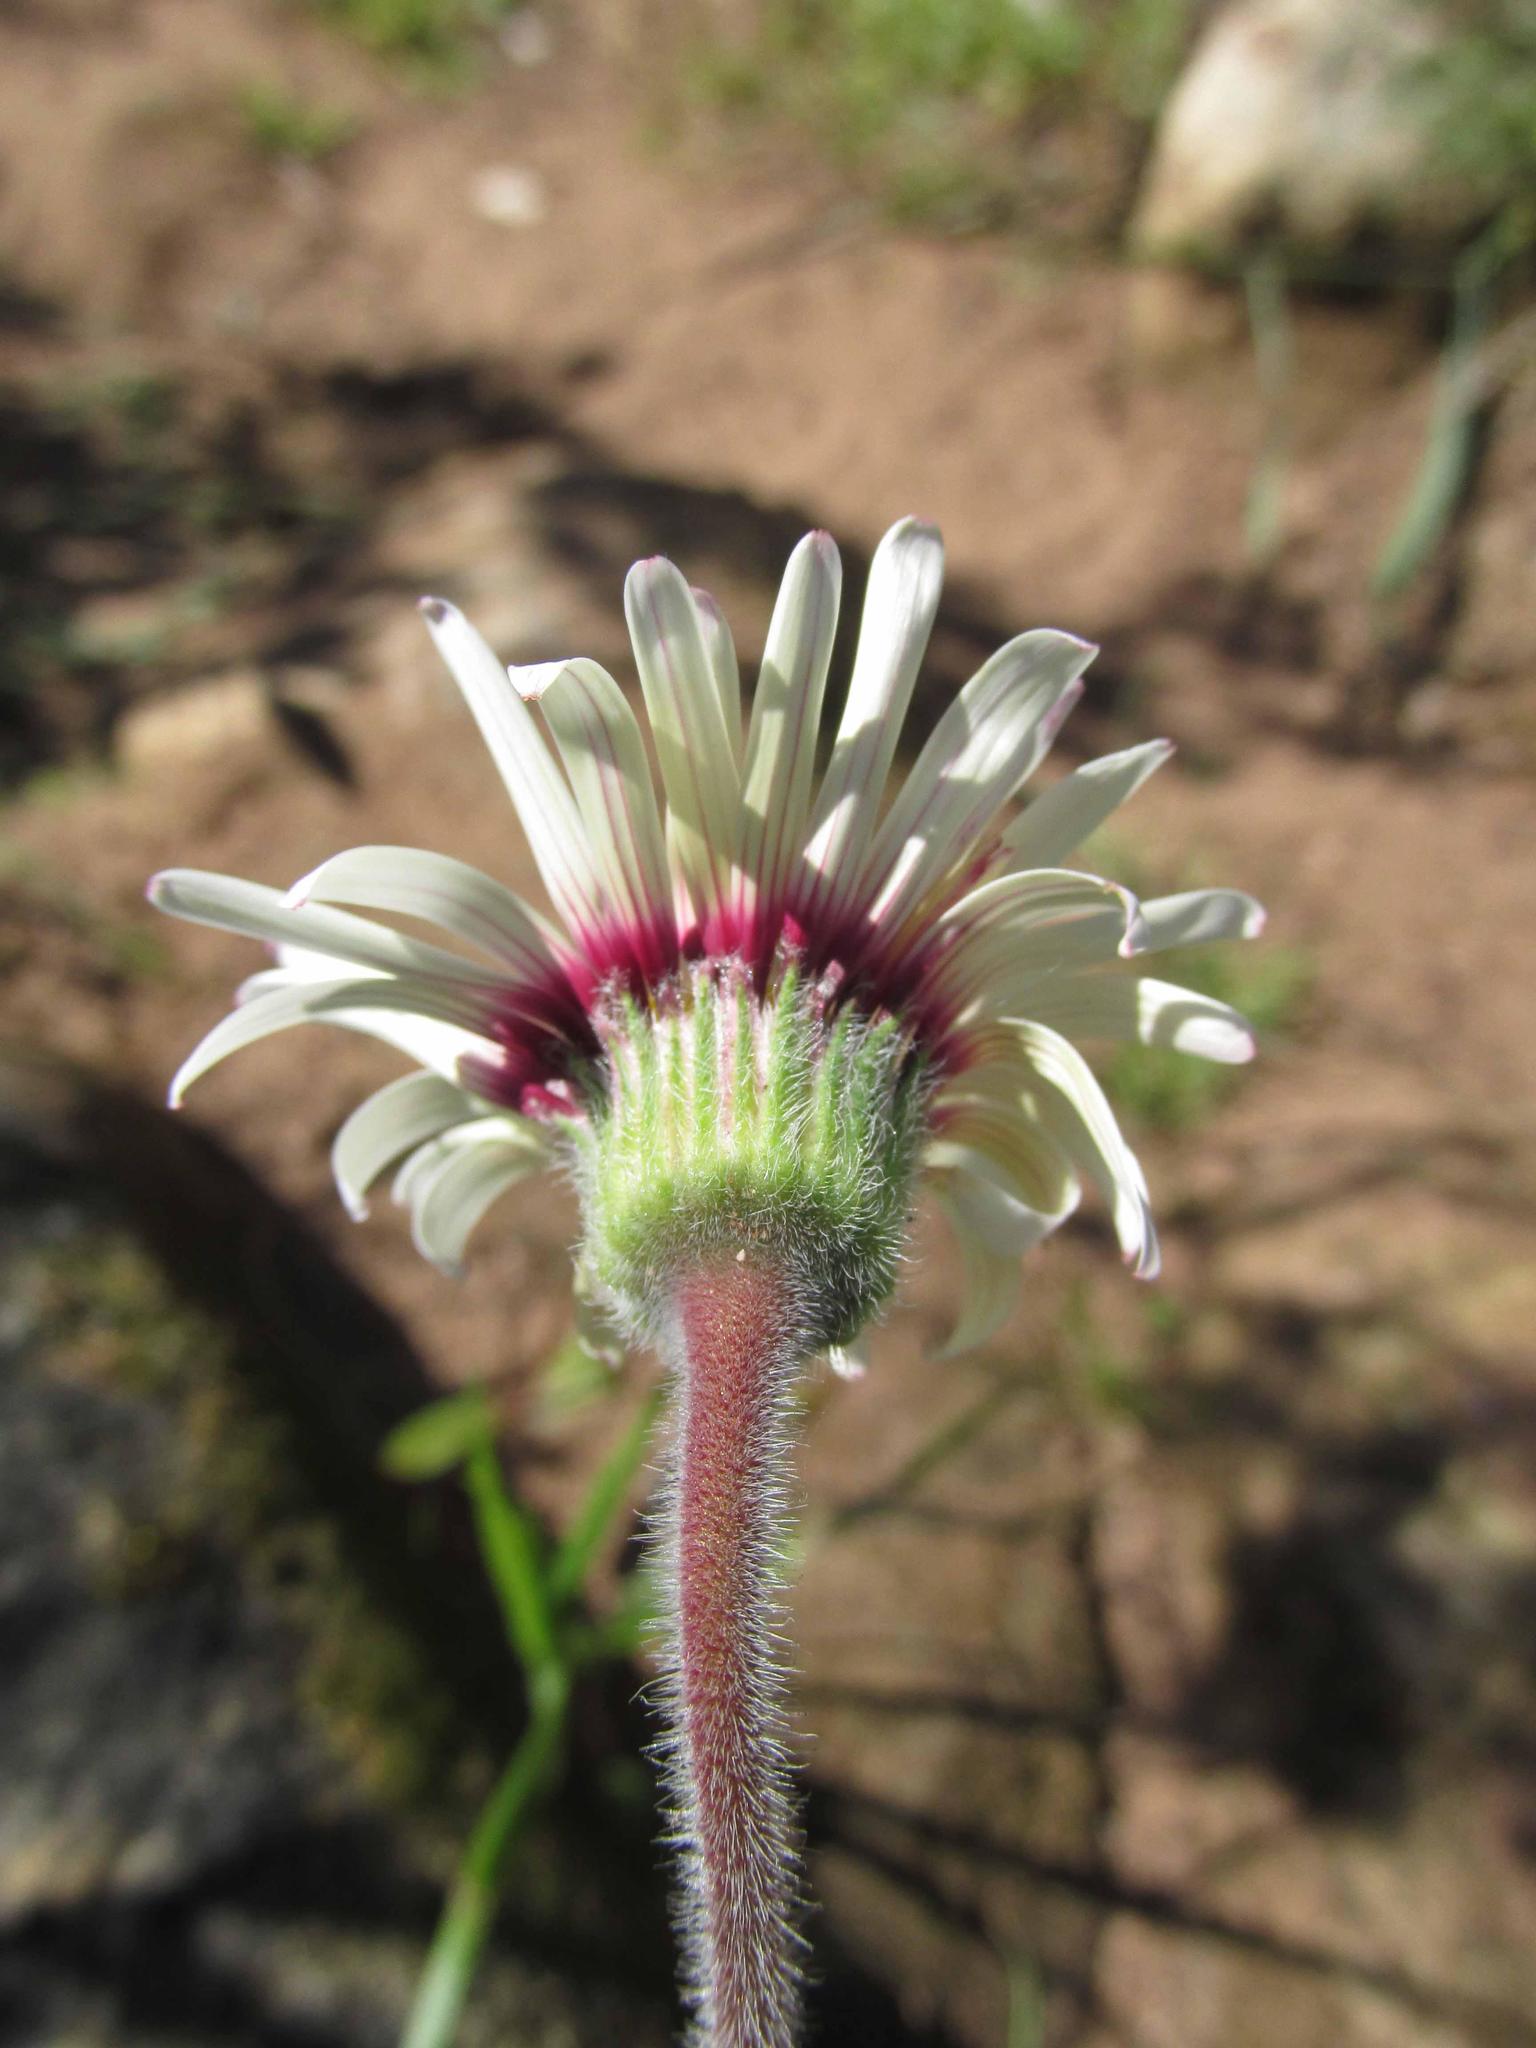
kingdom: Plantae
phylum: Tracheophyta
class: Magnoliopsida
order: Asterales
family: Asteraceae
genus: Felicia
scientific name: Felicia elongata
